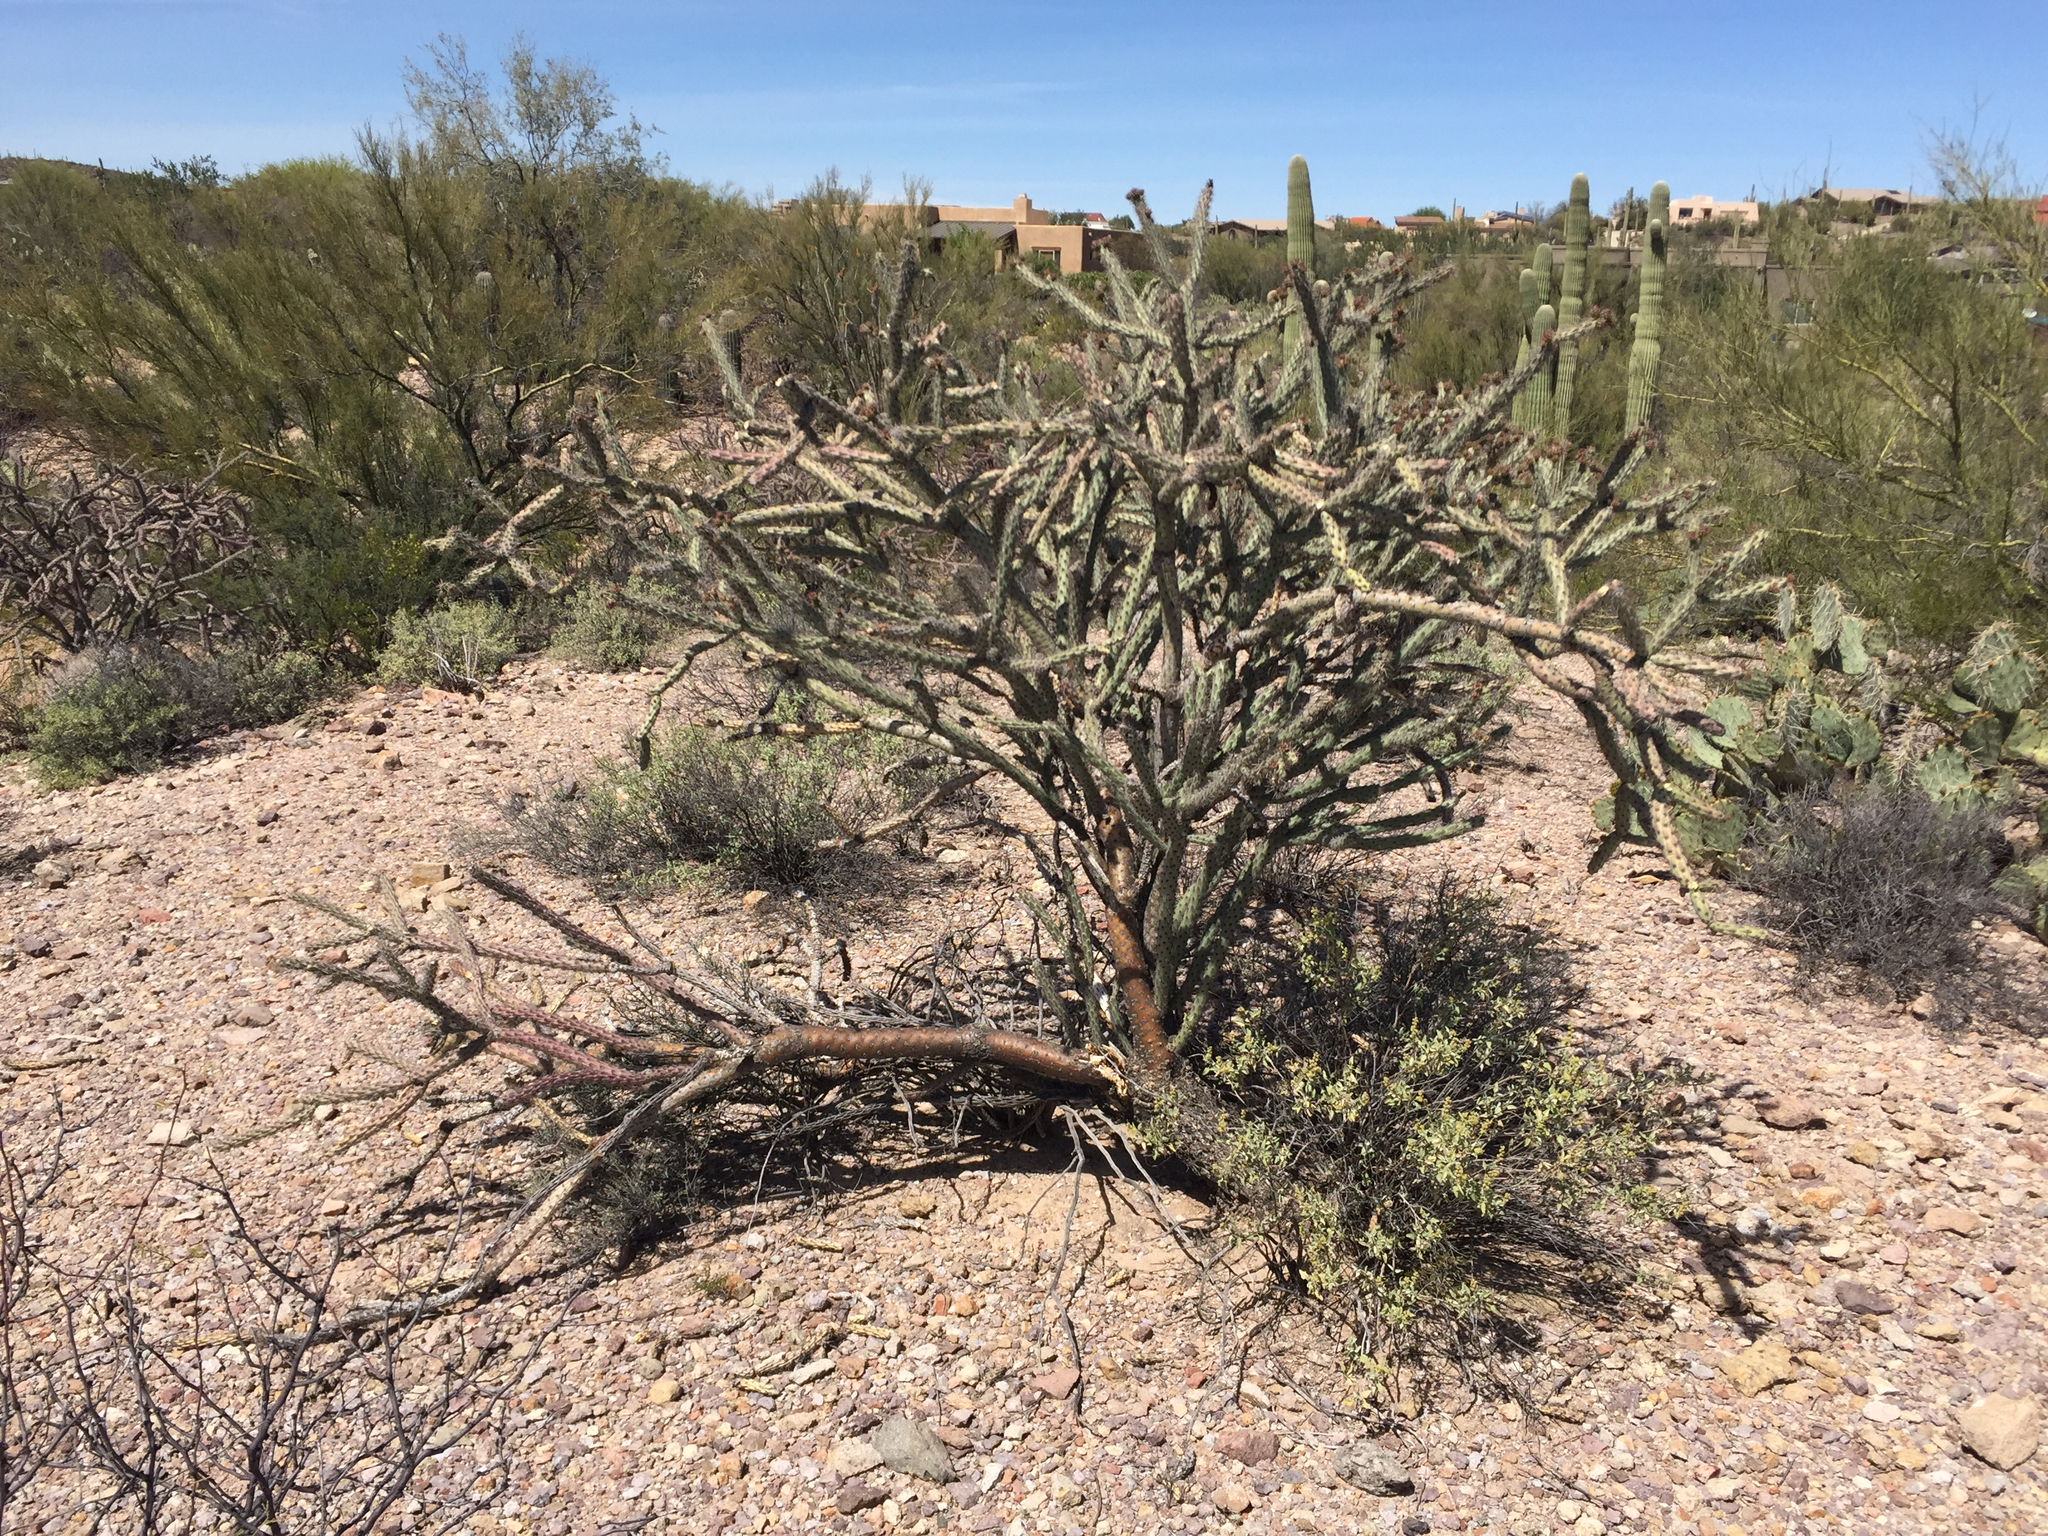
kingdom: Plantae
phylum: Tracheophyta
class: Magnoliopsida
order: Caryophyllales
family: Cactaceae
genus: Cylindropuntia
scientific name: Cylindropuntia acanthocarpa
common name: Buckhorn cholla
